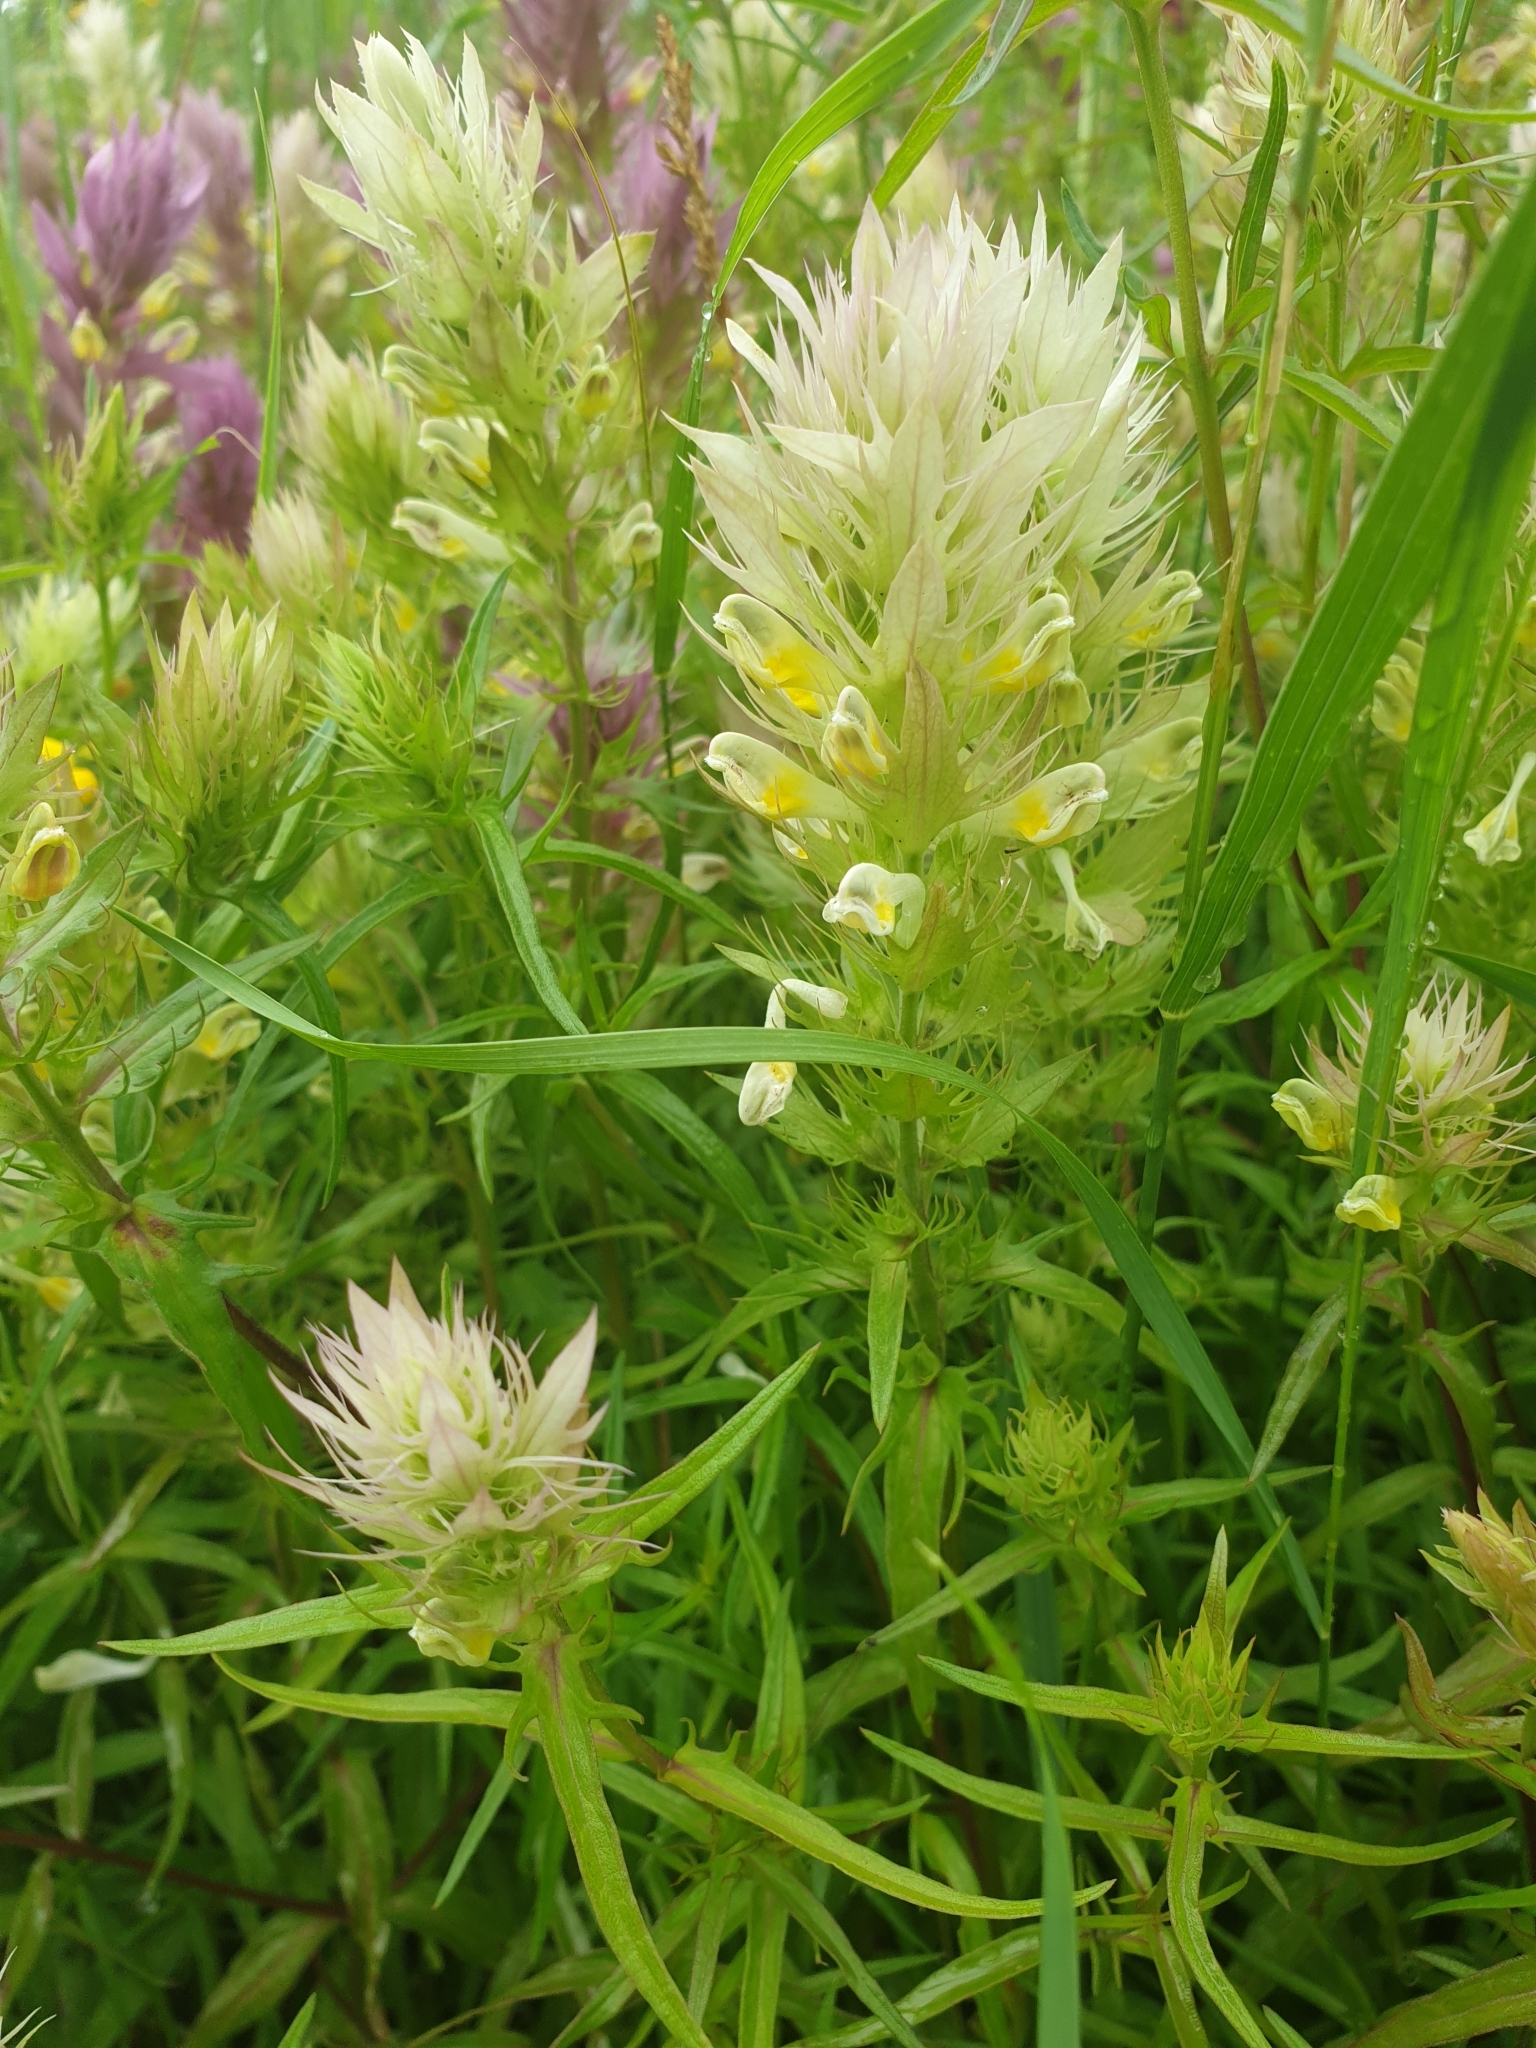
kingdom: Plantae
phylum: Tracheophyta
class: Magnoliopsida
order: Lamiales
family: Orobanchaceae
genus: Melampyrum
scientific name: Melampyrum arvense
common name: Field cow-wheat
